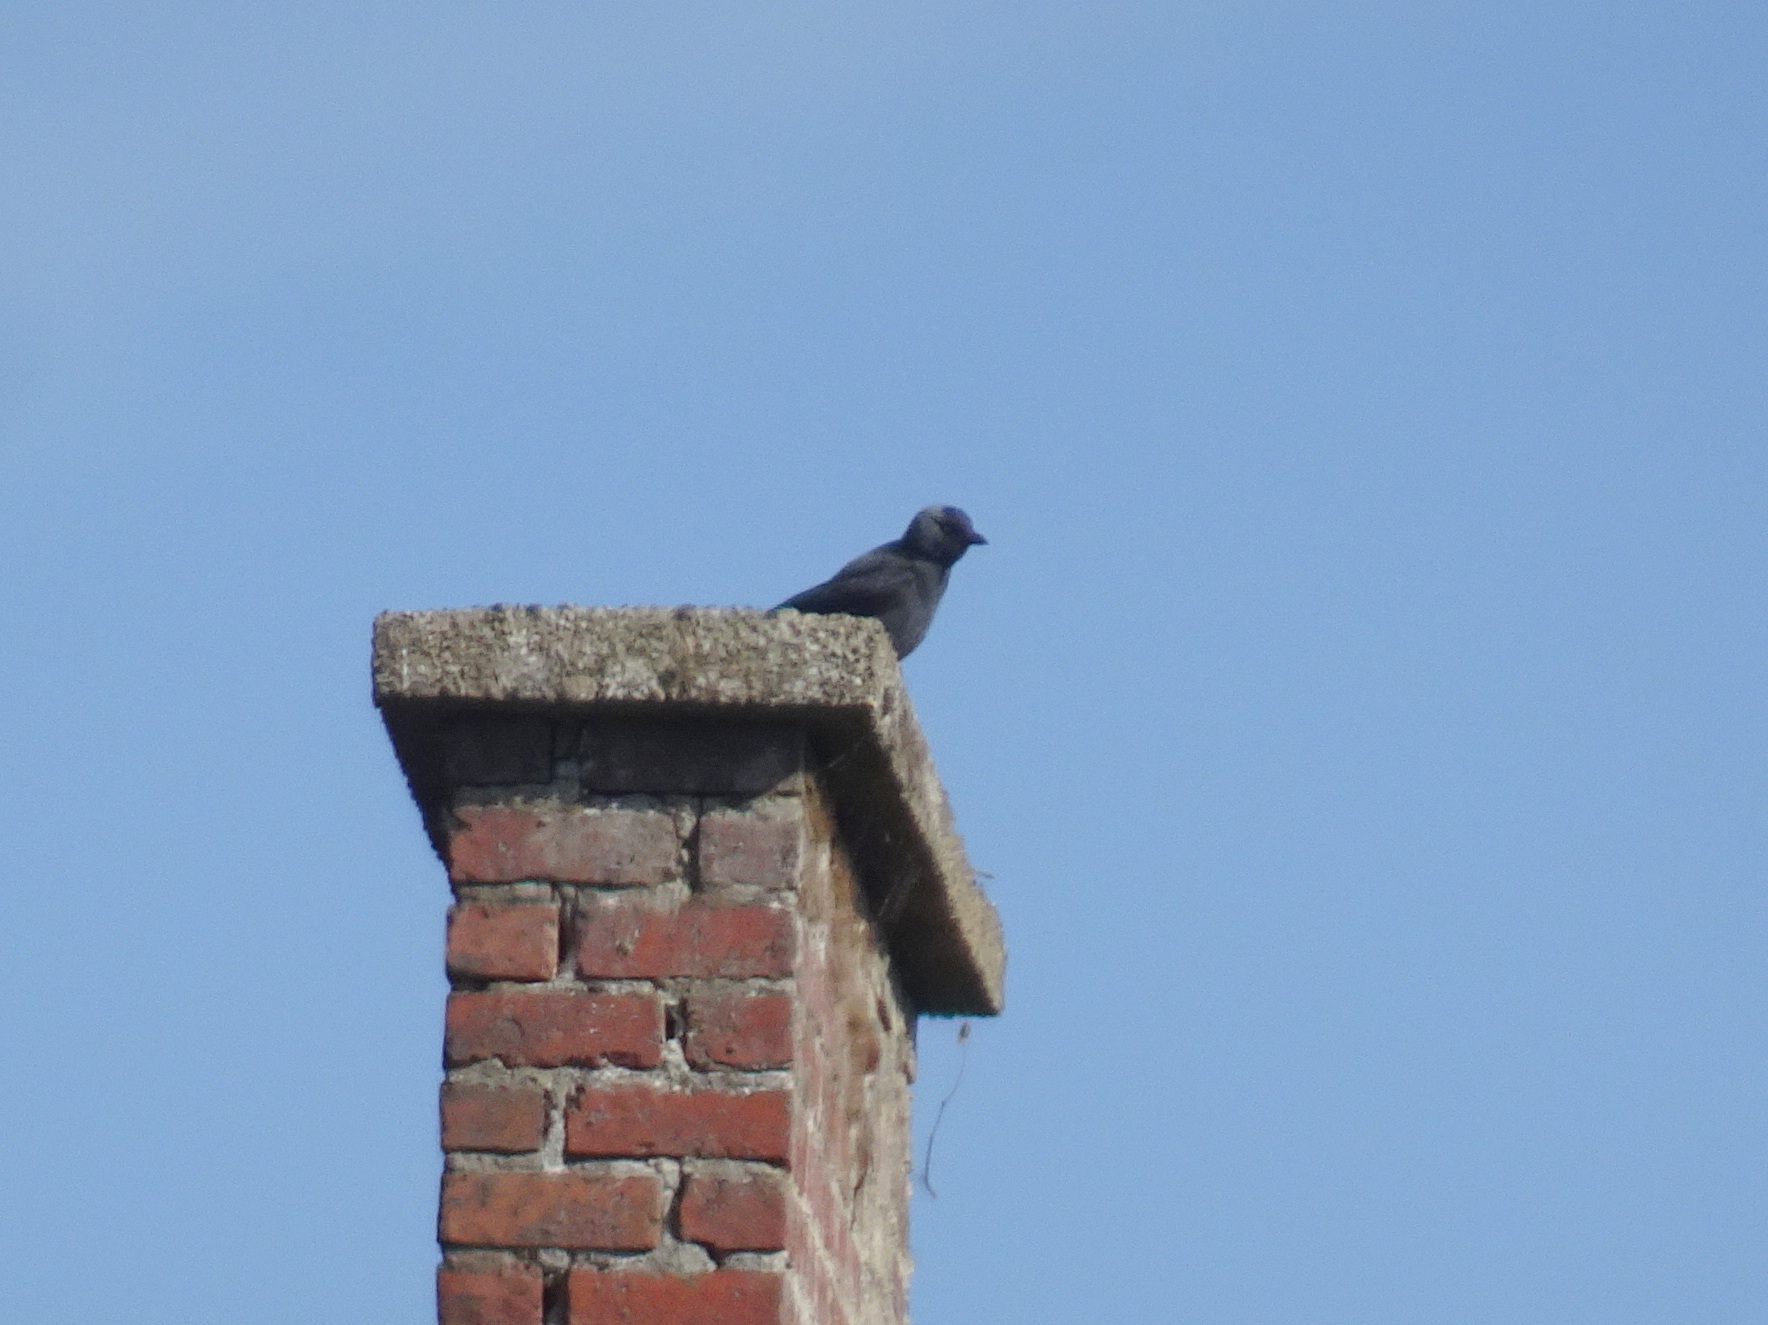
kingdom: Animalia
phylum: Chordata
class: Aves
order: Passeriformes
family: Corvidae
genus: Coloeus
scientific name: Coloeus monedula
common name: Western jackdaw
